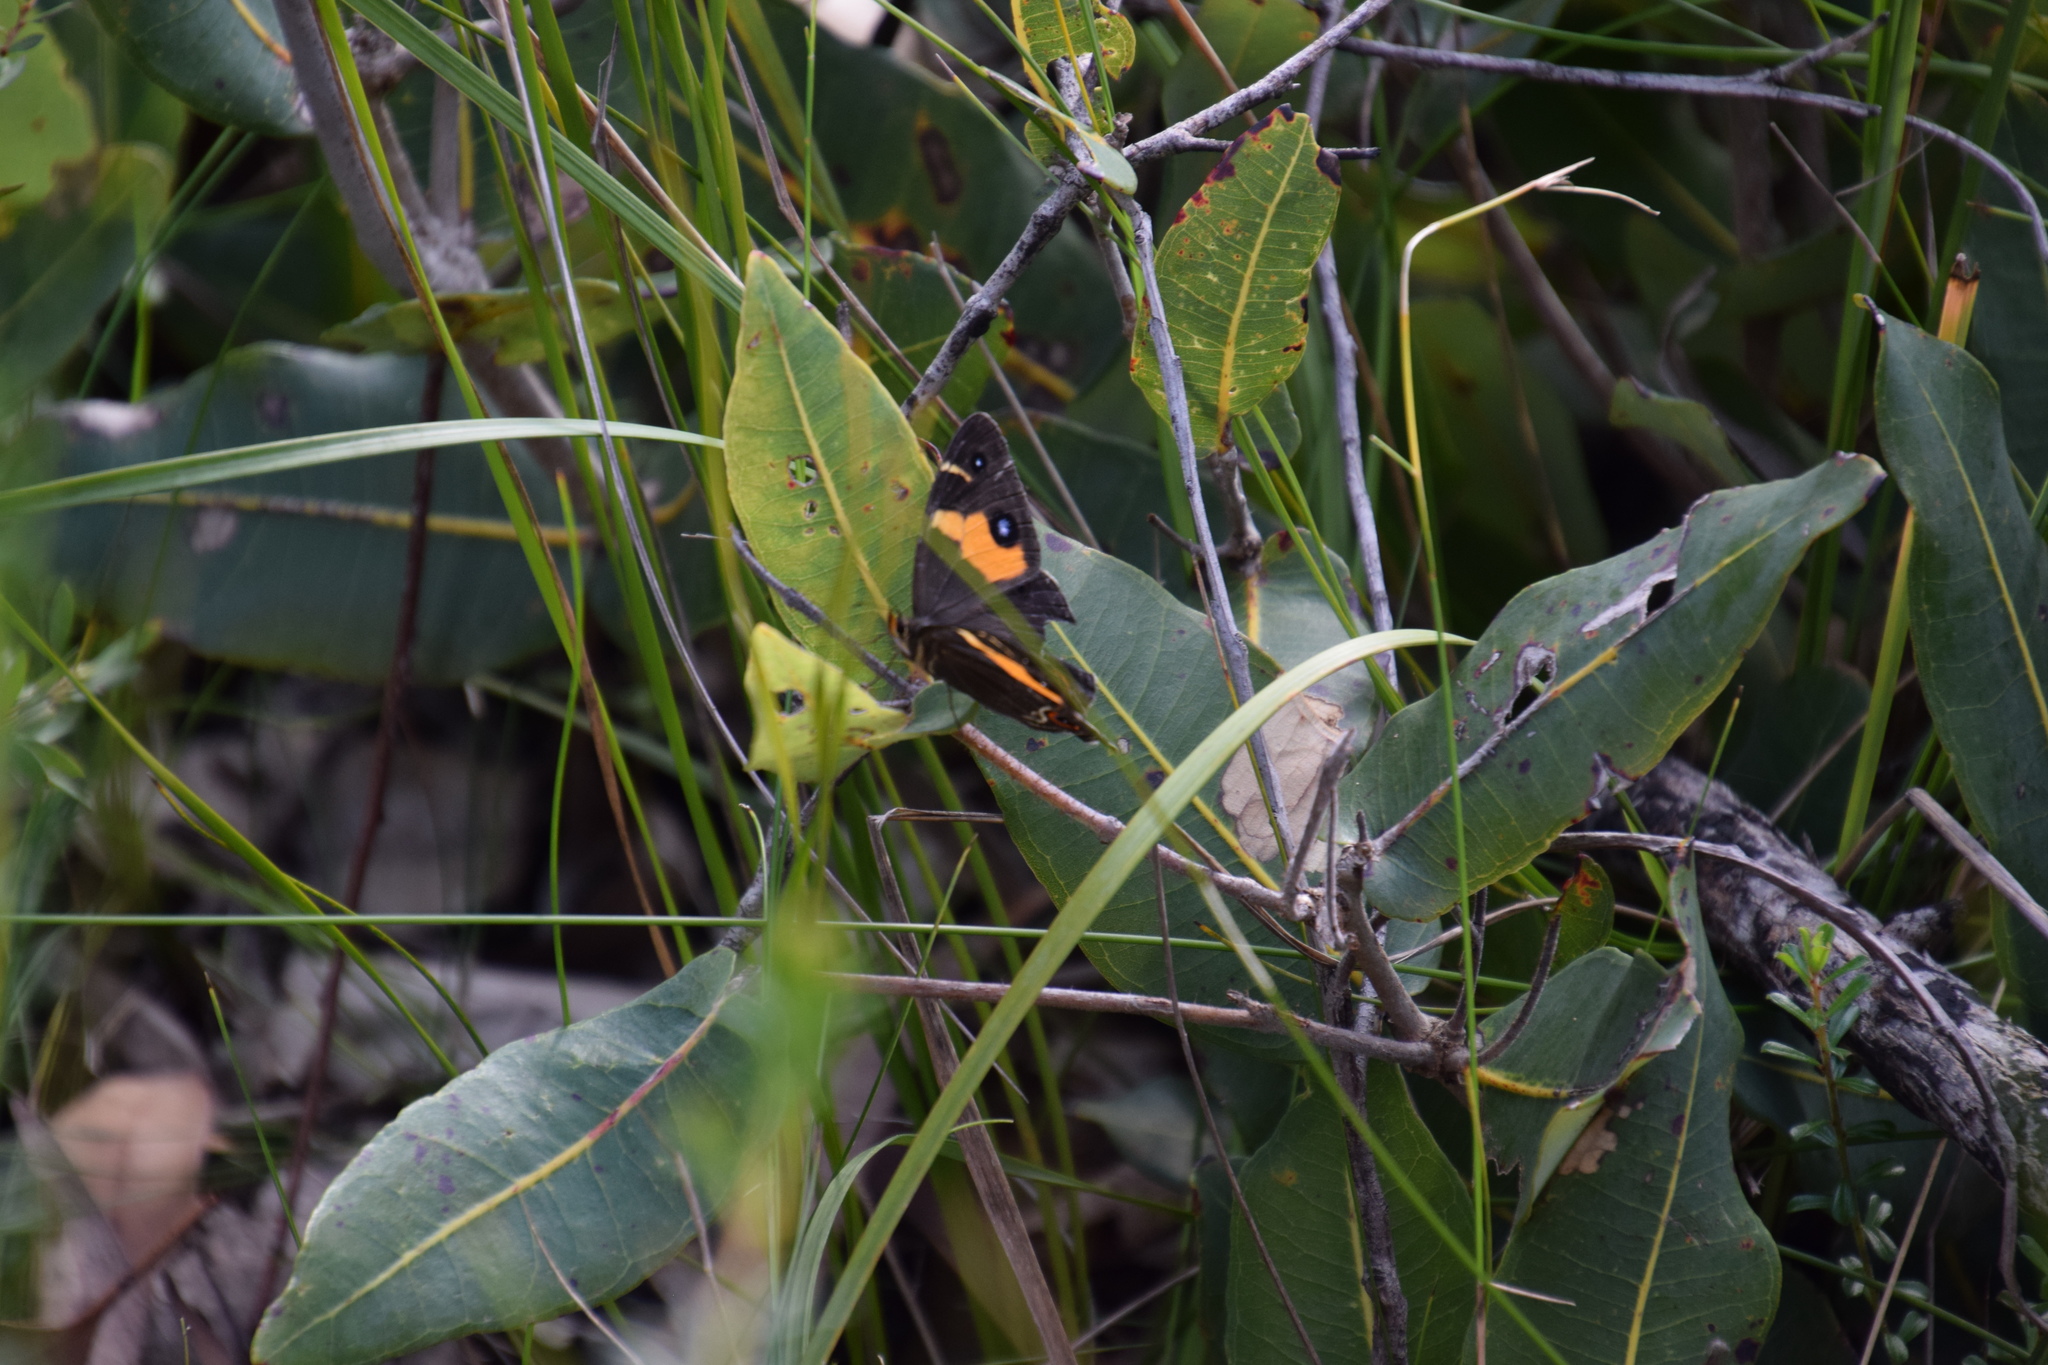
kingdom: Animalia
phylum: Arthropoda
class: Insecta
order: Lepidoptera
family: Nymphalidae
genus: Tisiphone
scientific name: Tisiphone abeona
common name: Swordgrass brown
